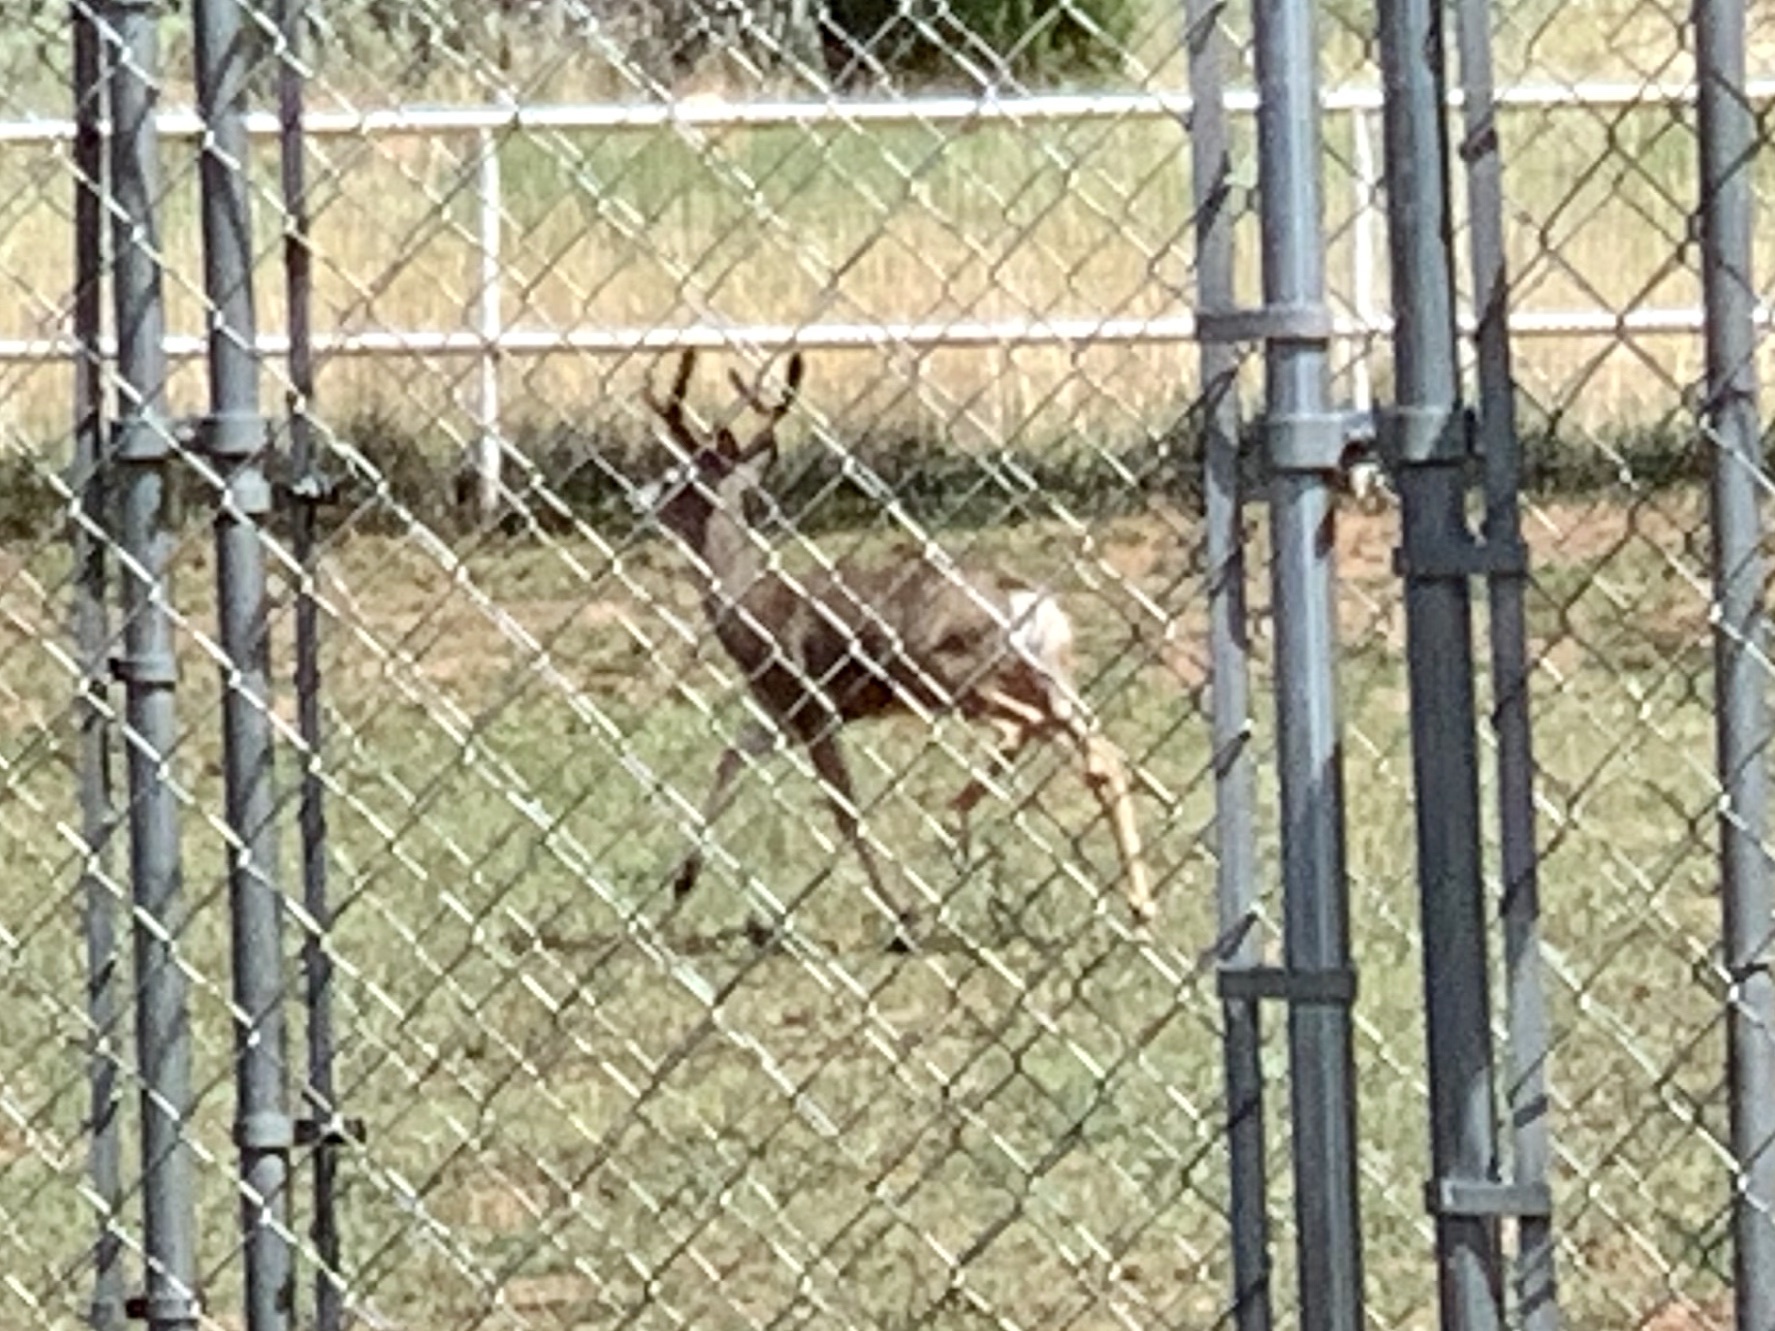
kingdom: Animalia
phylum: Chordata
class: Mammalia
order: Artiodactyla
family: Cervidae
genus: Odocoileus
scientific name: Odocoileus hemionus
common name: Mule deer
